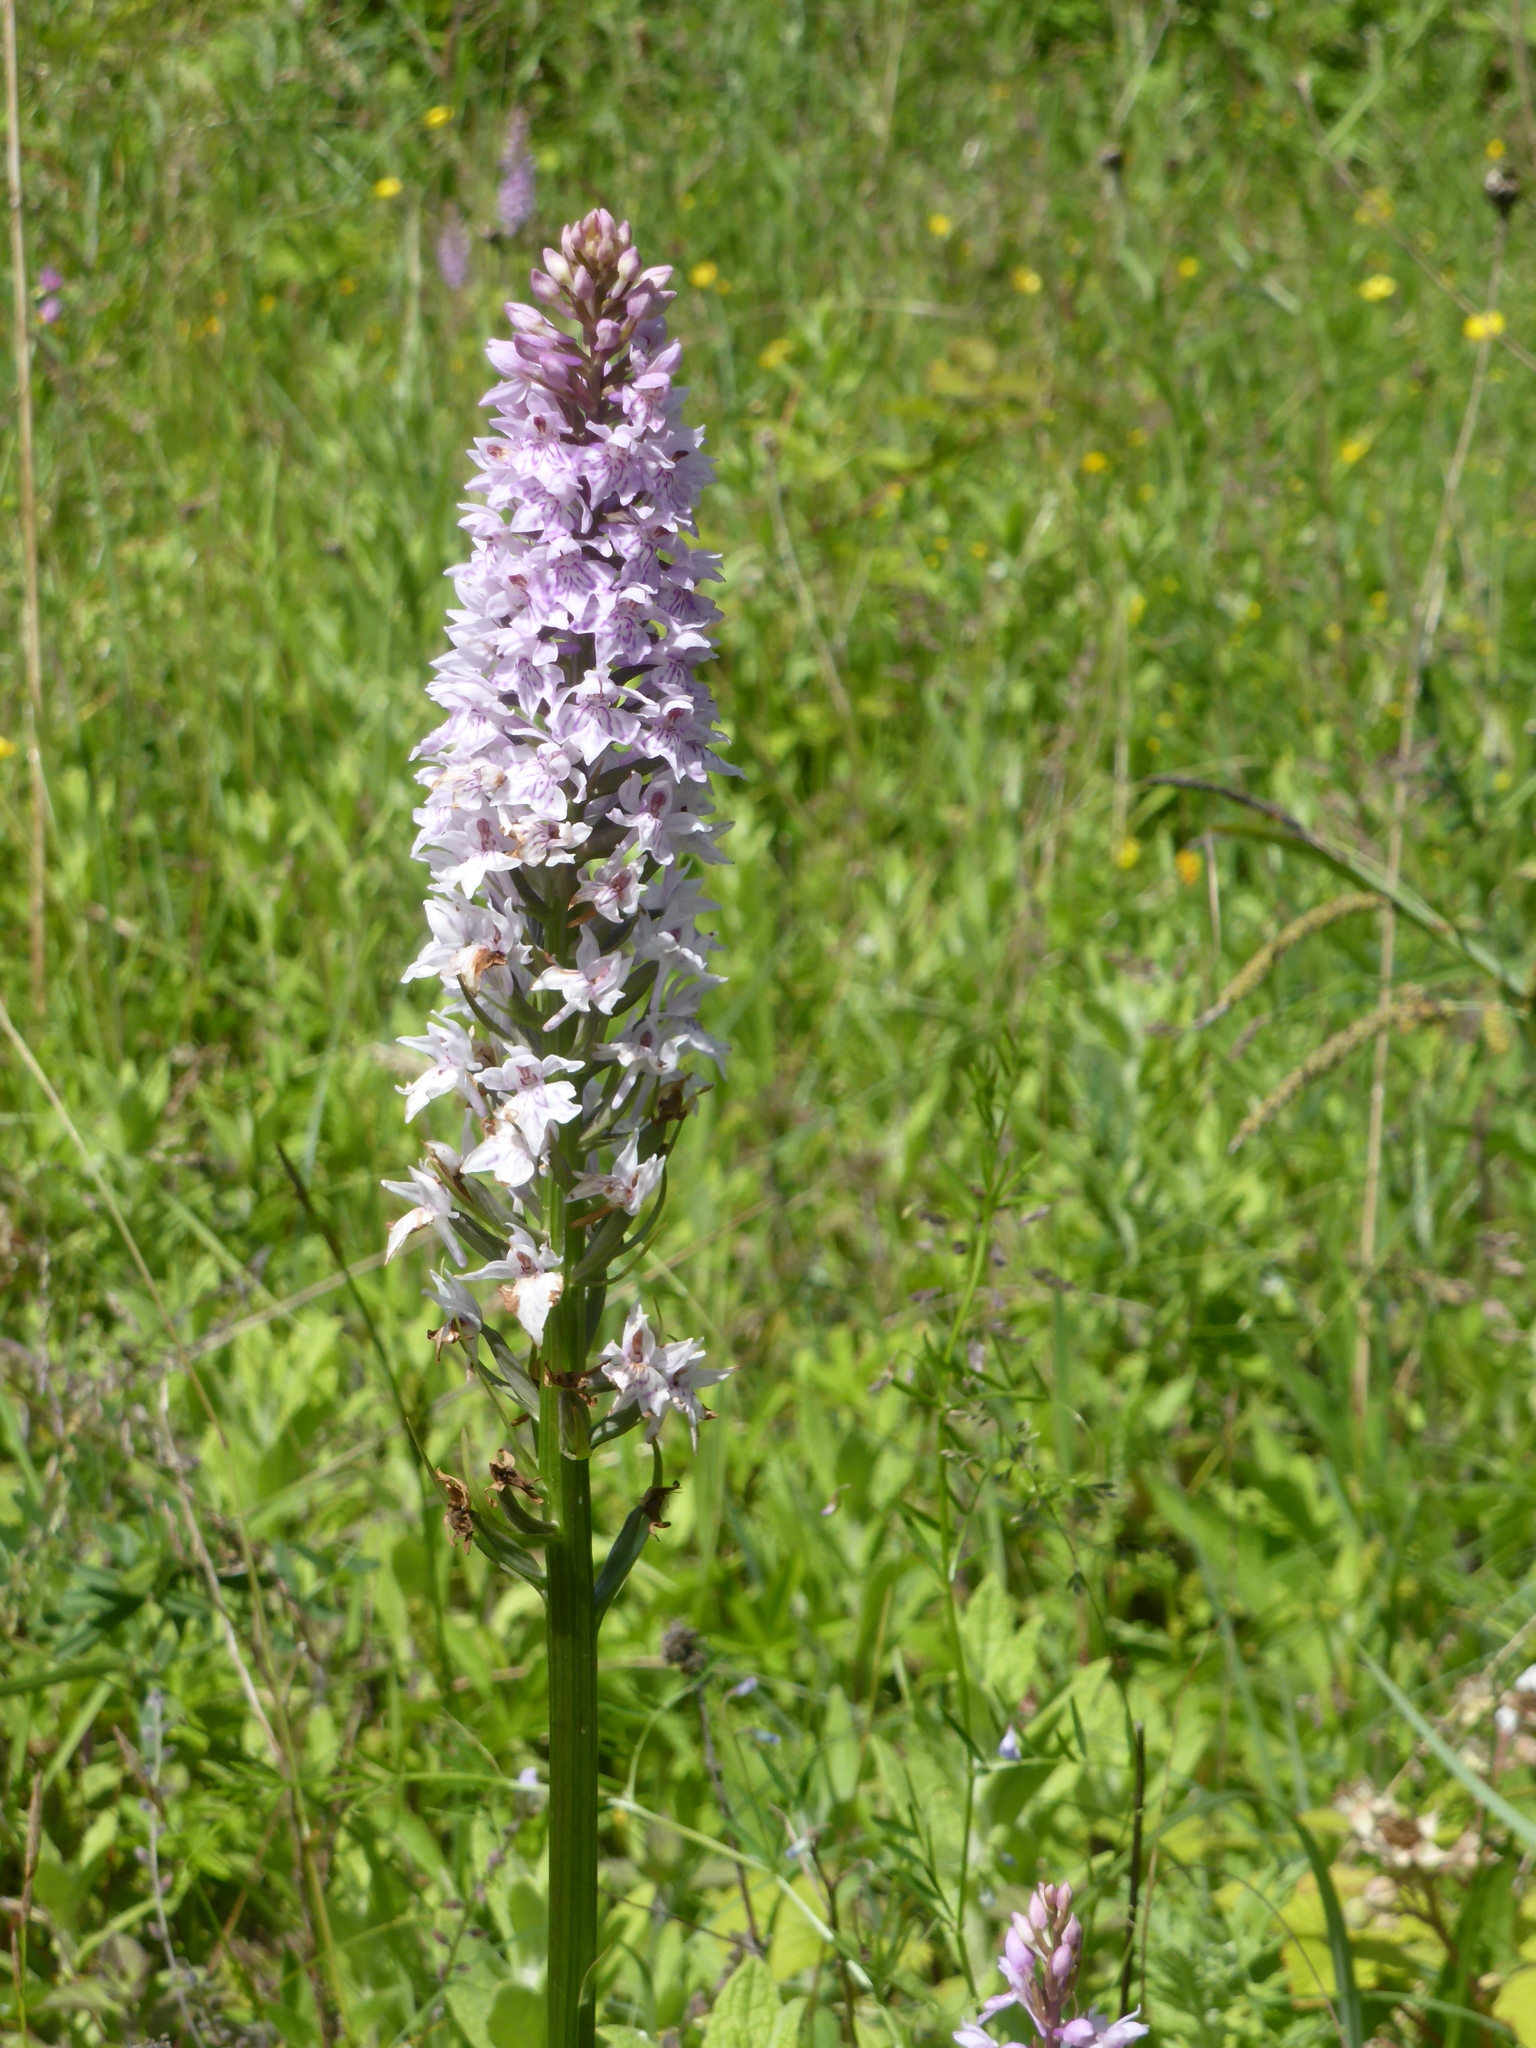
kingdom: Plantae
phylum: Tracheophyta
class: Liliopsida
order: Asparagales
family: Orchidaceae
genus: Dactylorhiza
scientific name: Dactylorhiza maculata
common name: Heath spotted-orchid
